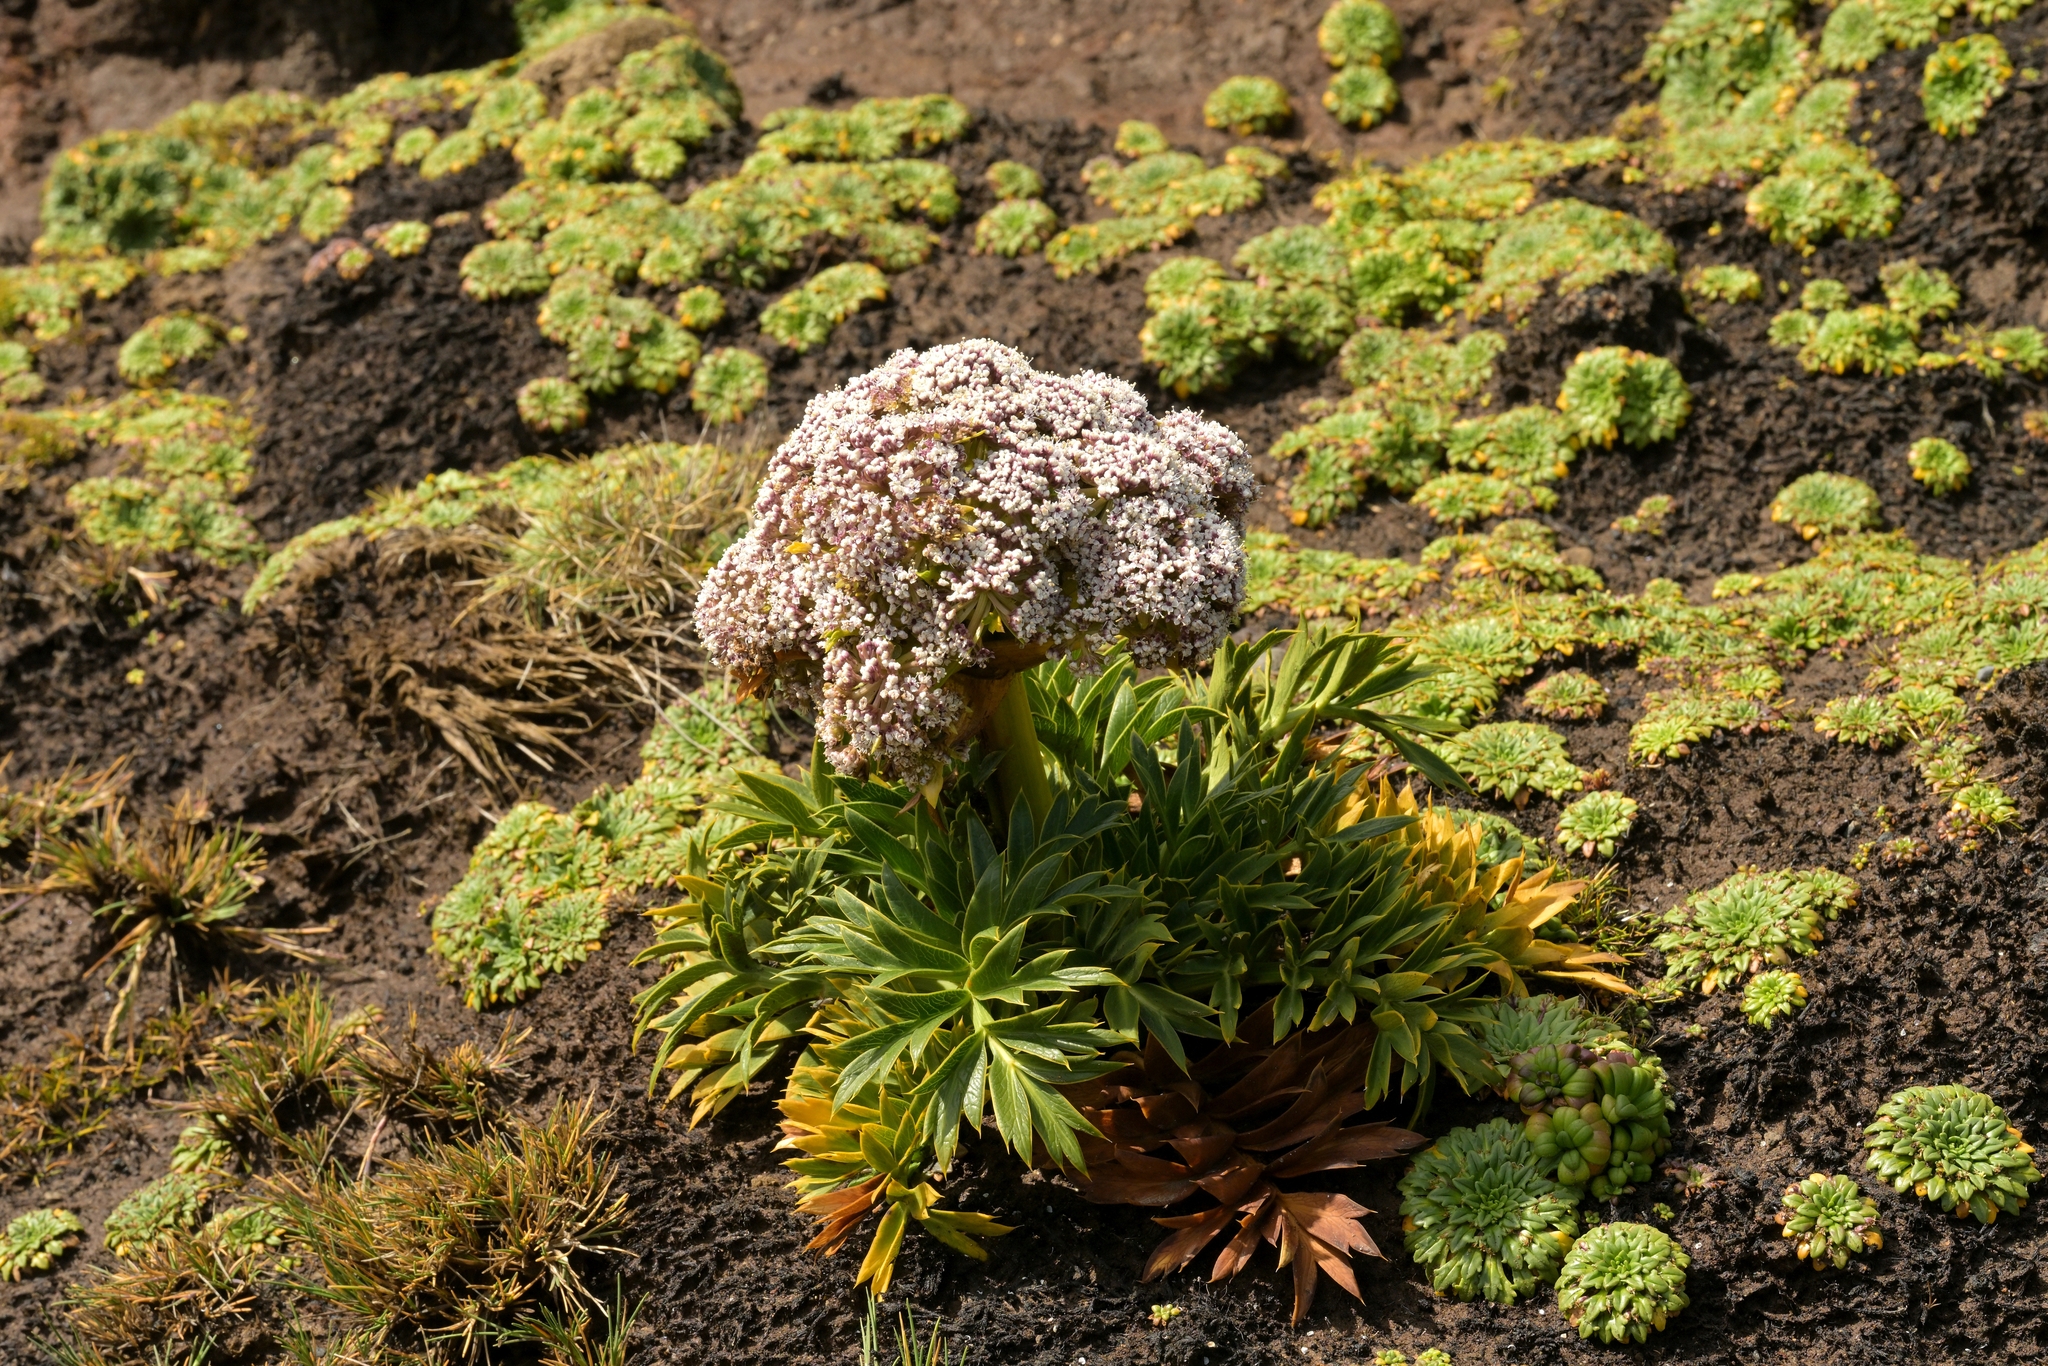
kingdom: Plantae
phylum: Tracheophyta
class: Magnoliopsida
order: Apiales
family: Apiaceae
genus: Anisotome
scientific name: Anisotome latifolia
